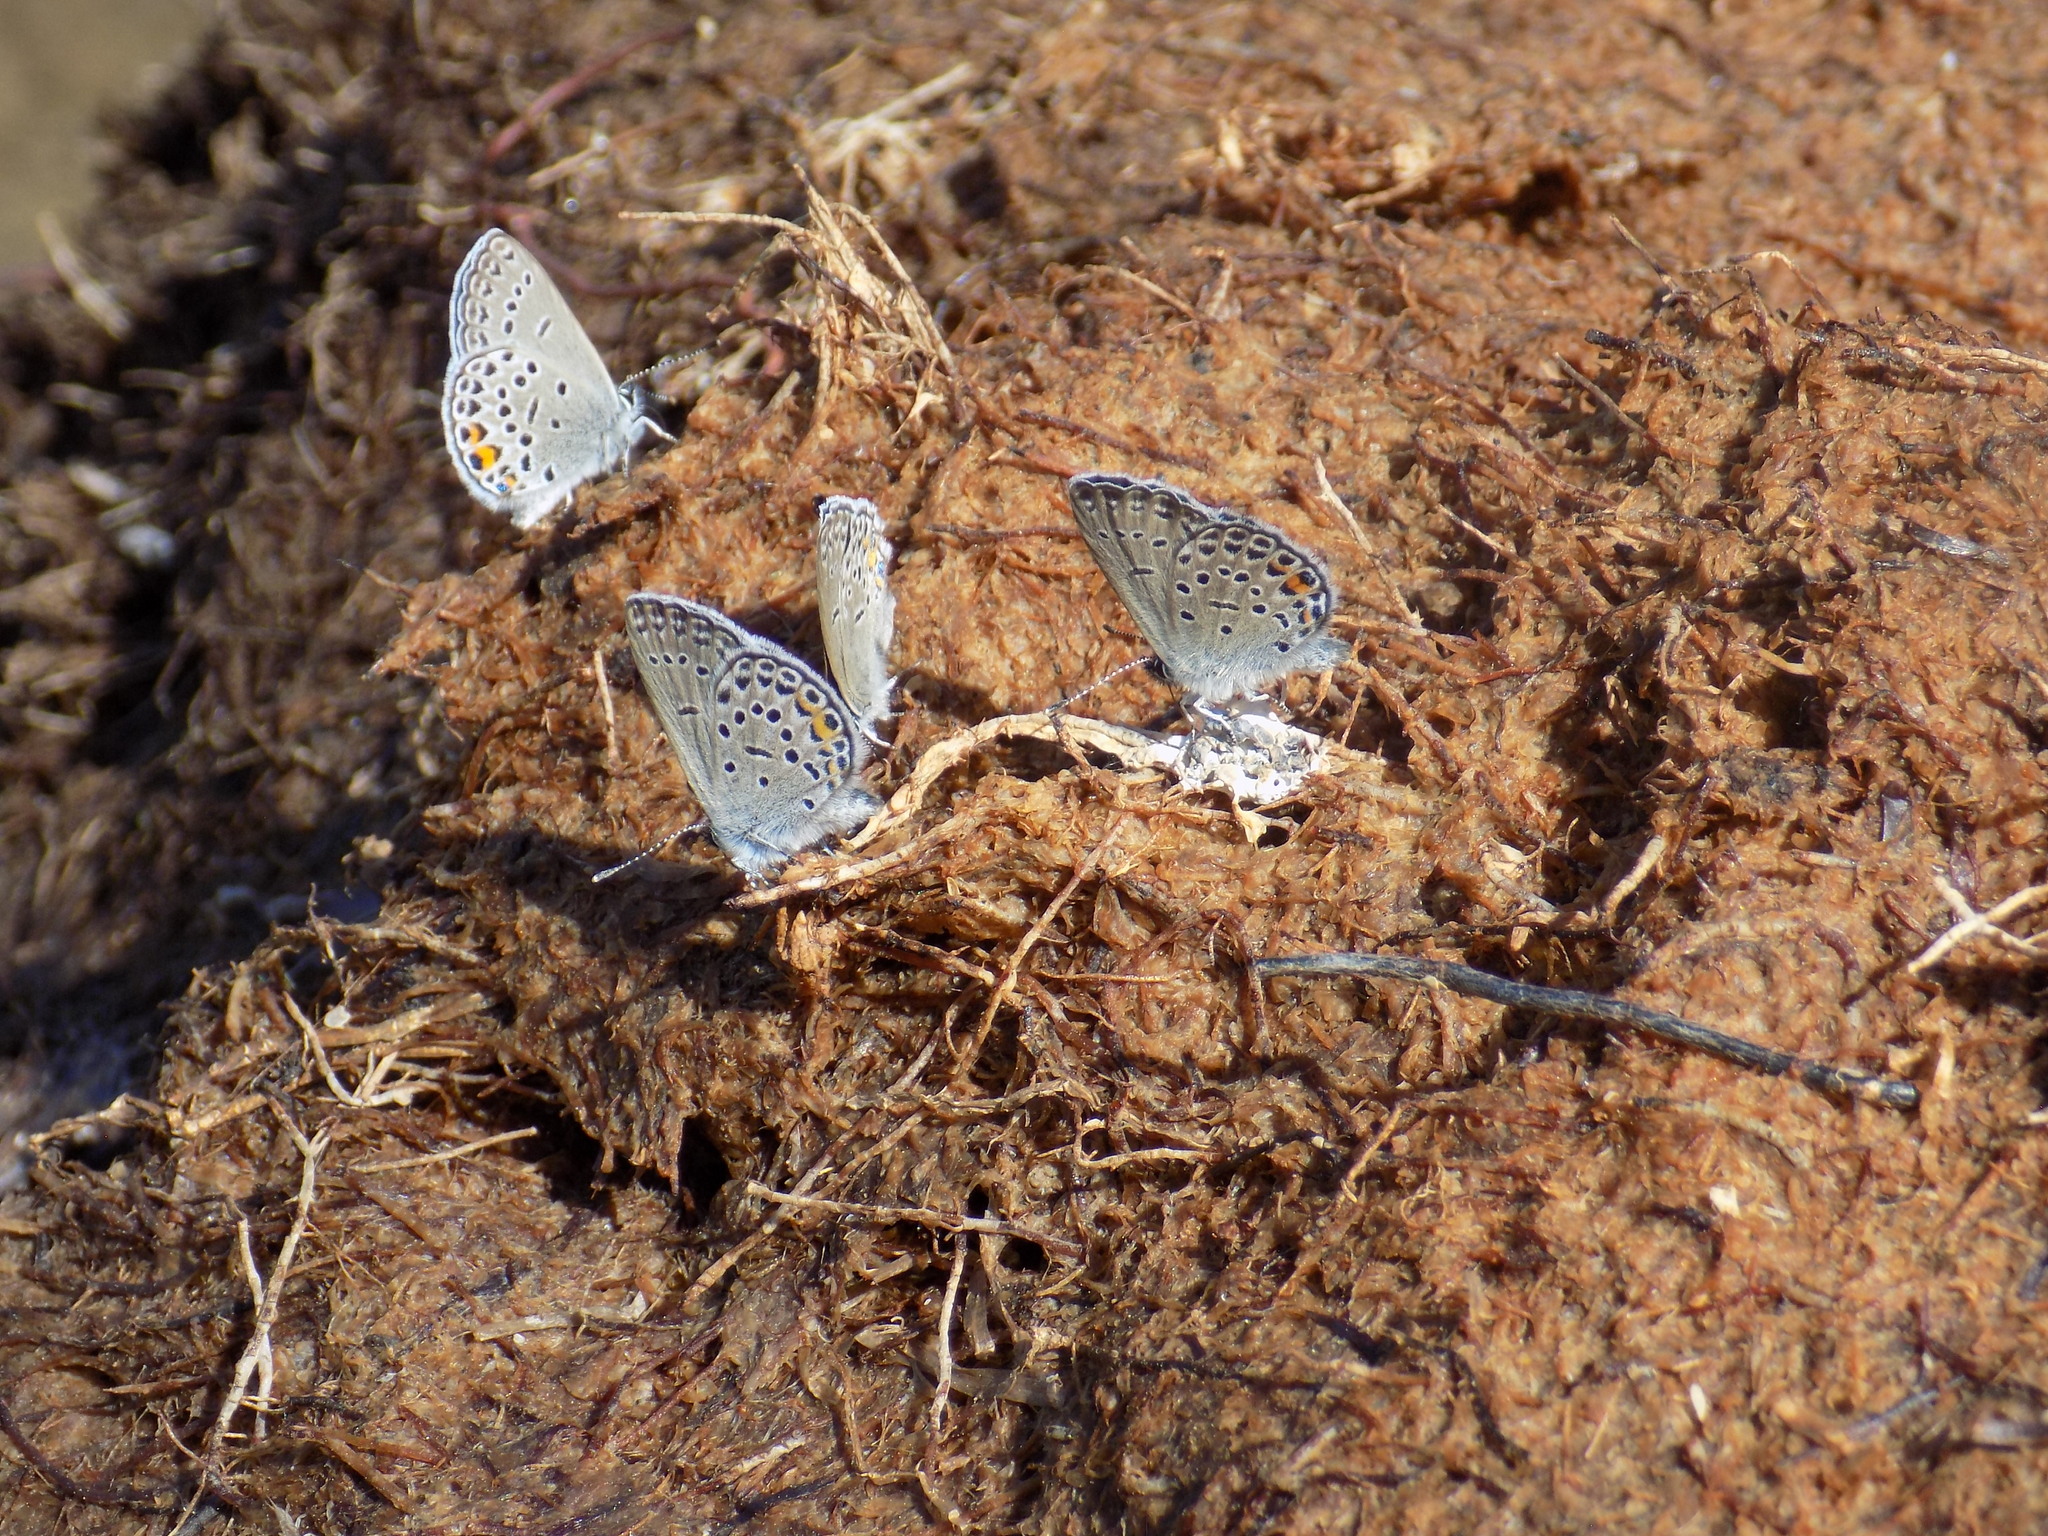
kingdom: Animalia
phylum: Arthropoda
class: Insecta
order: Lepidoptera
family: Lycaenidae
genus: Vacciniina
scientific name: Vacciniina optilete
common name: Cranberry blue
